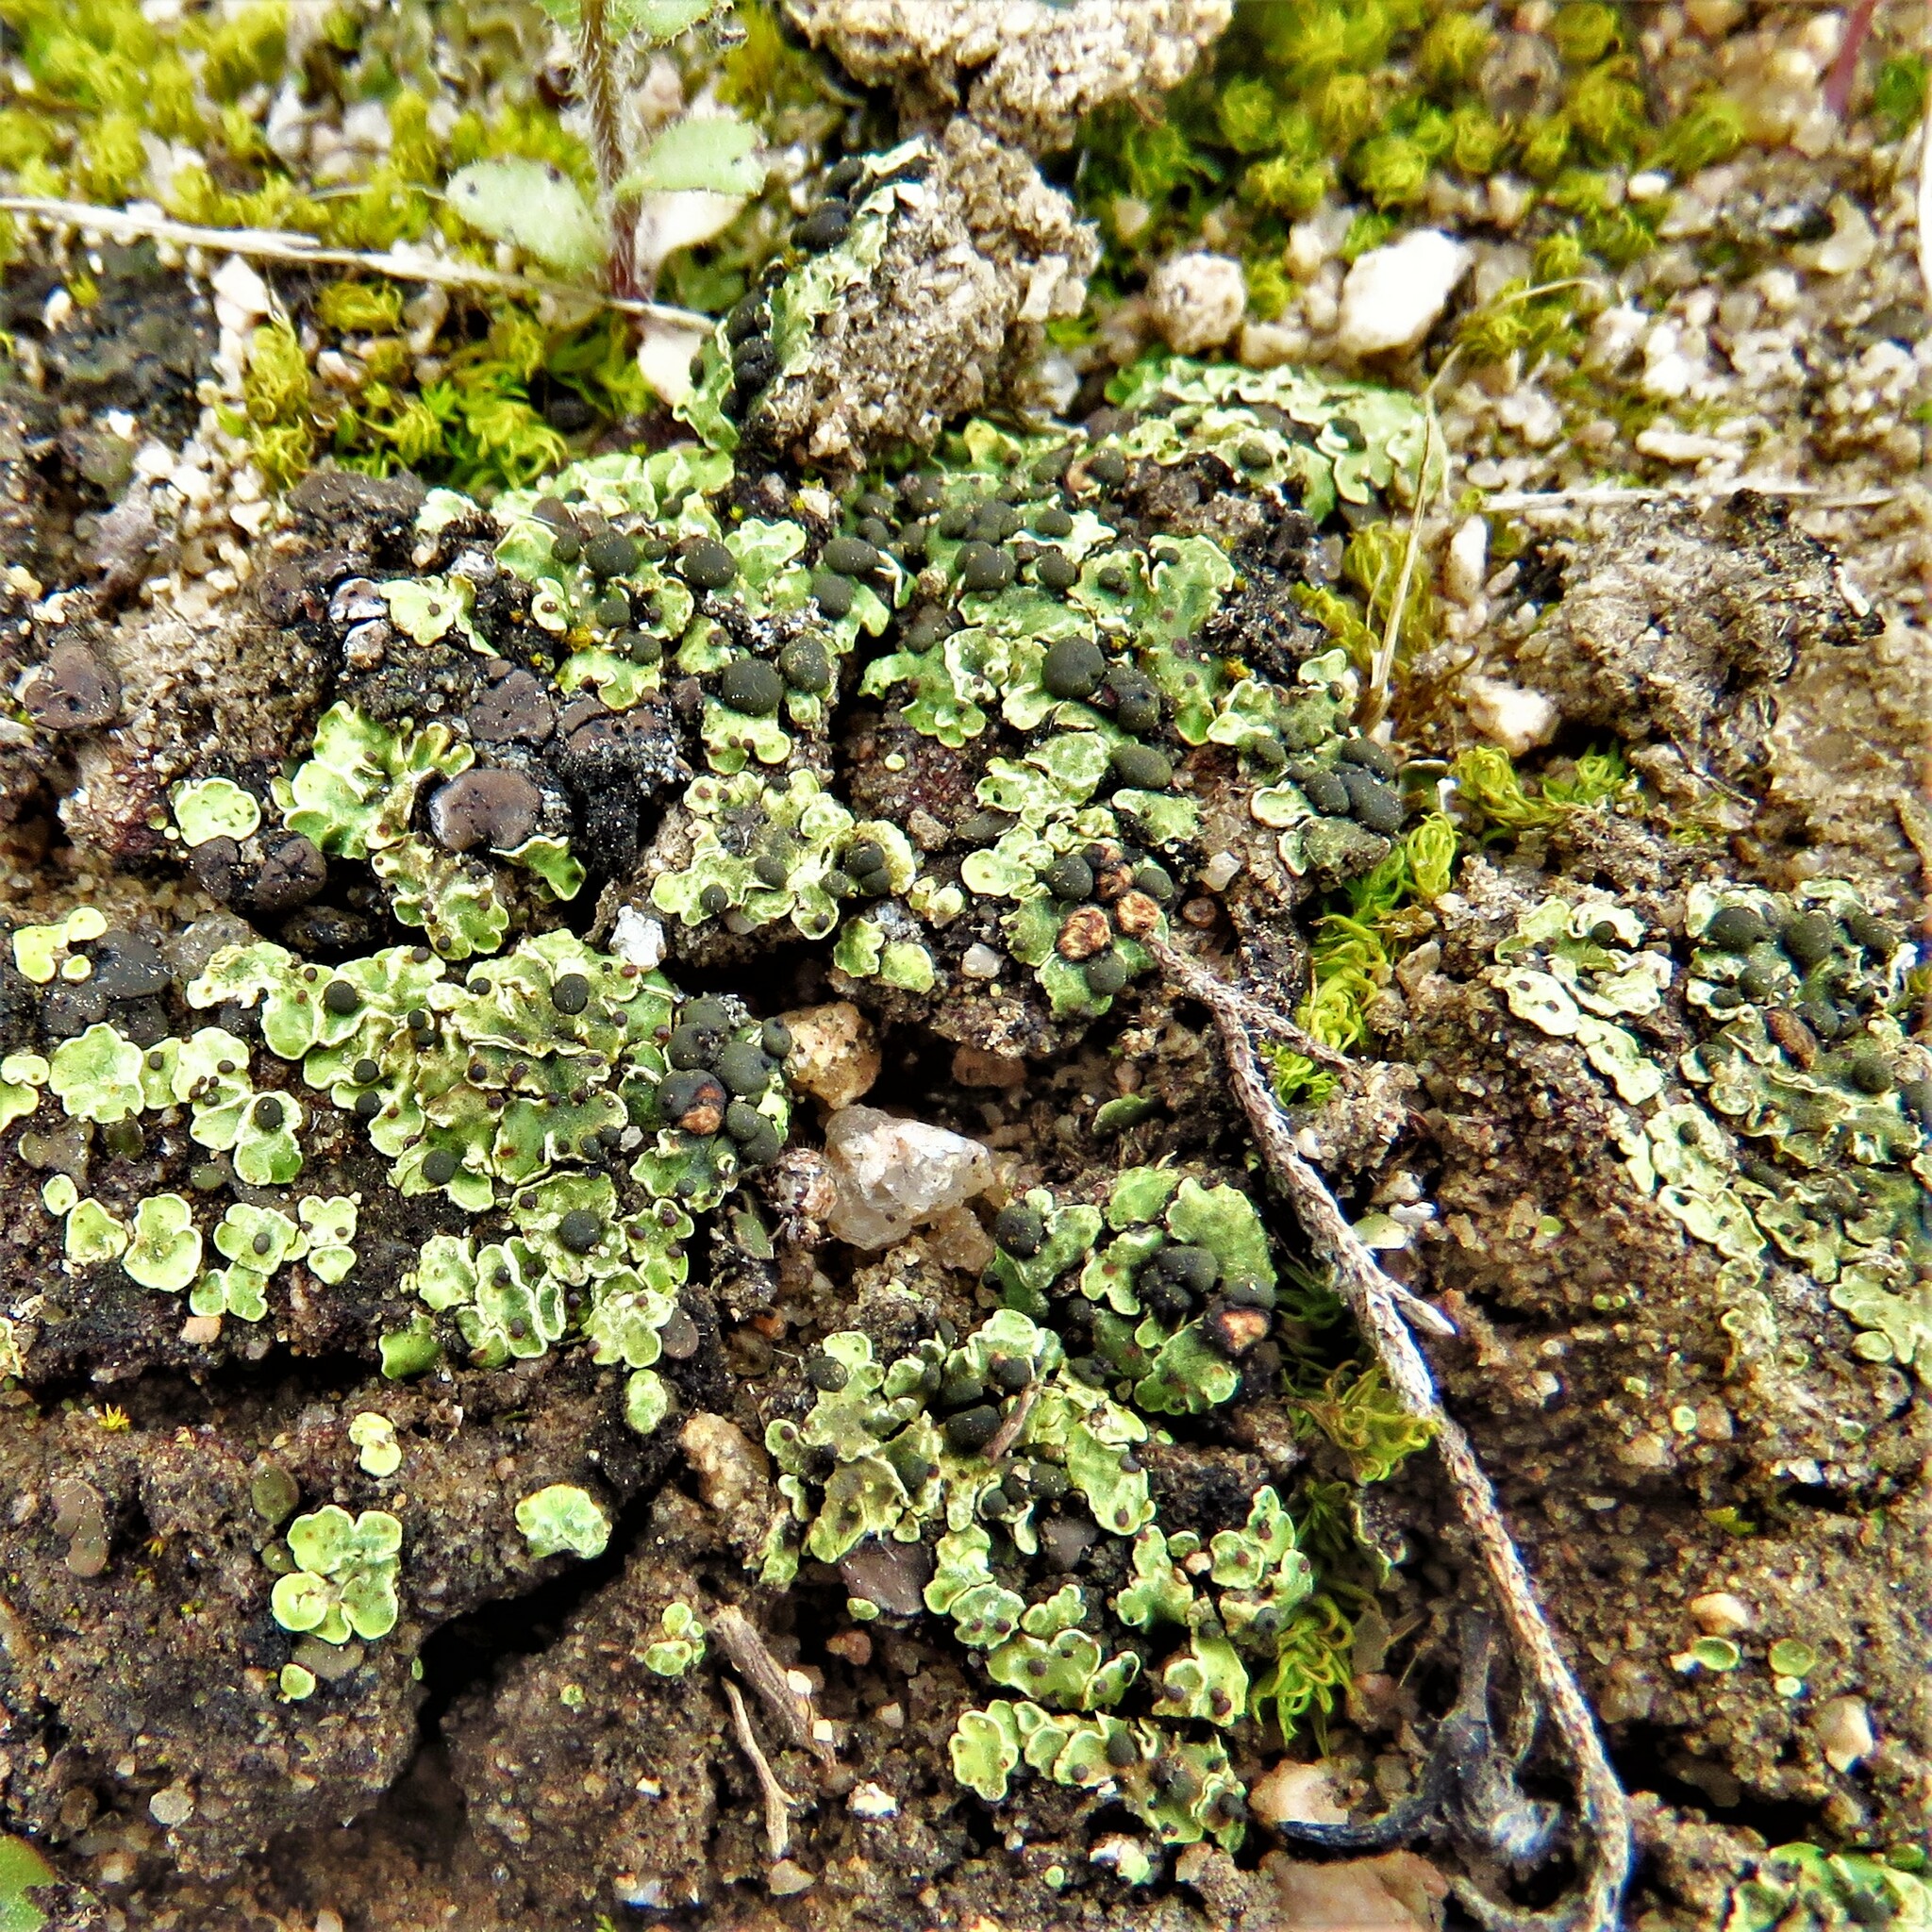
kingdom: Fungi
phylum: Ascomycota
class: Lecanoromycetes
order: Lecanorales
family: Psoraceae
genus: Psora
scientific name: Psora icterica
